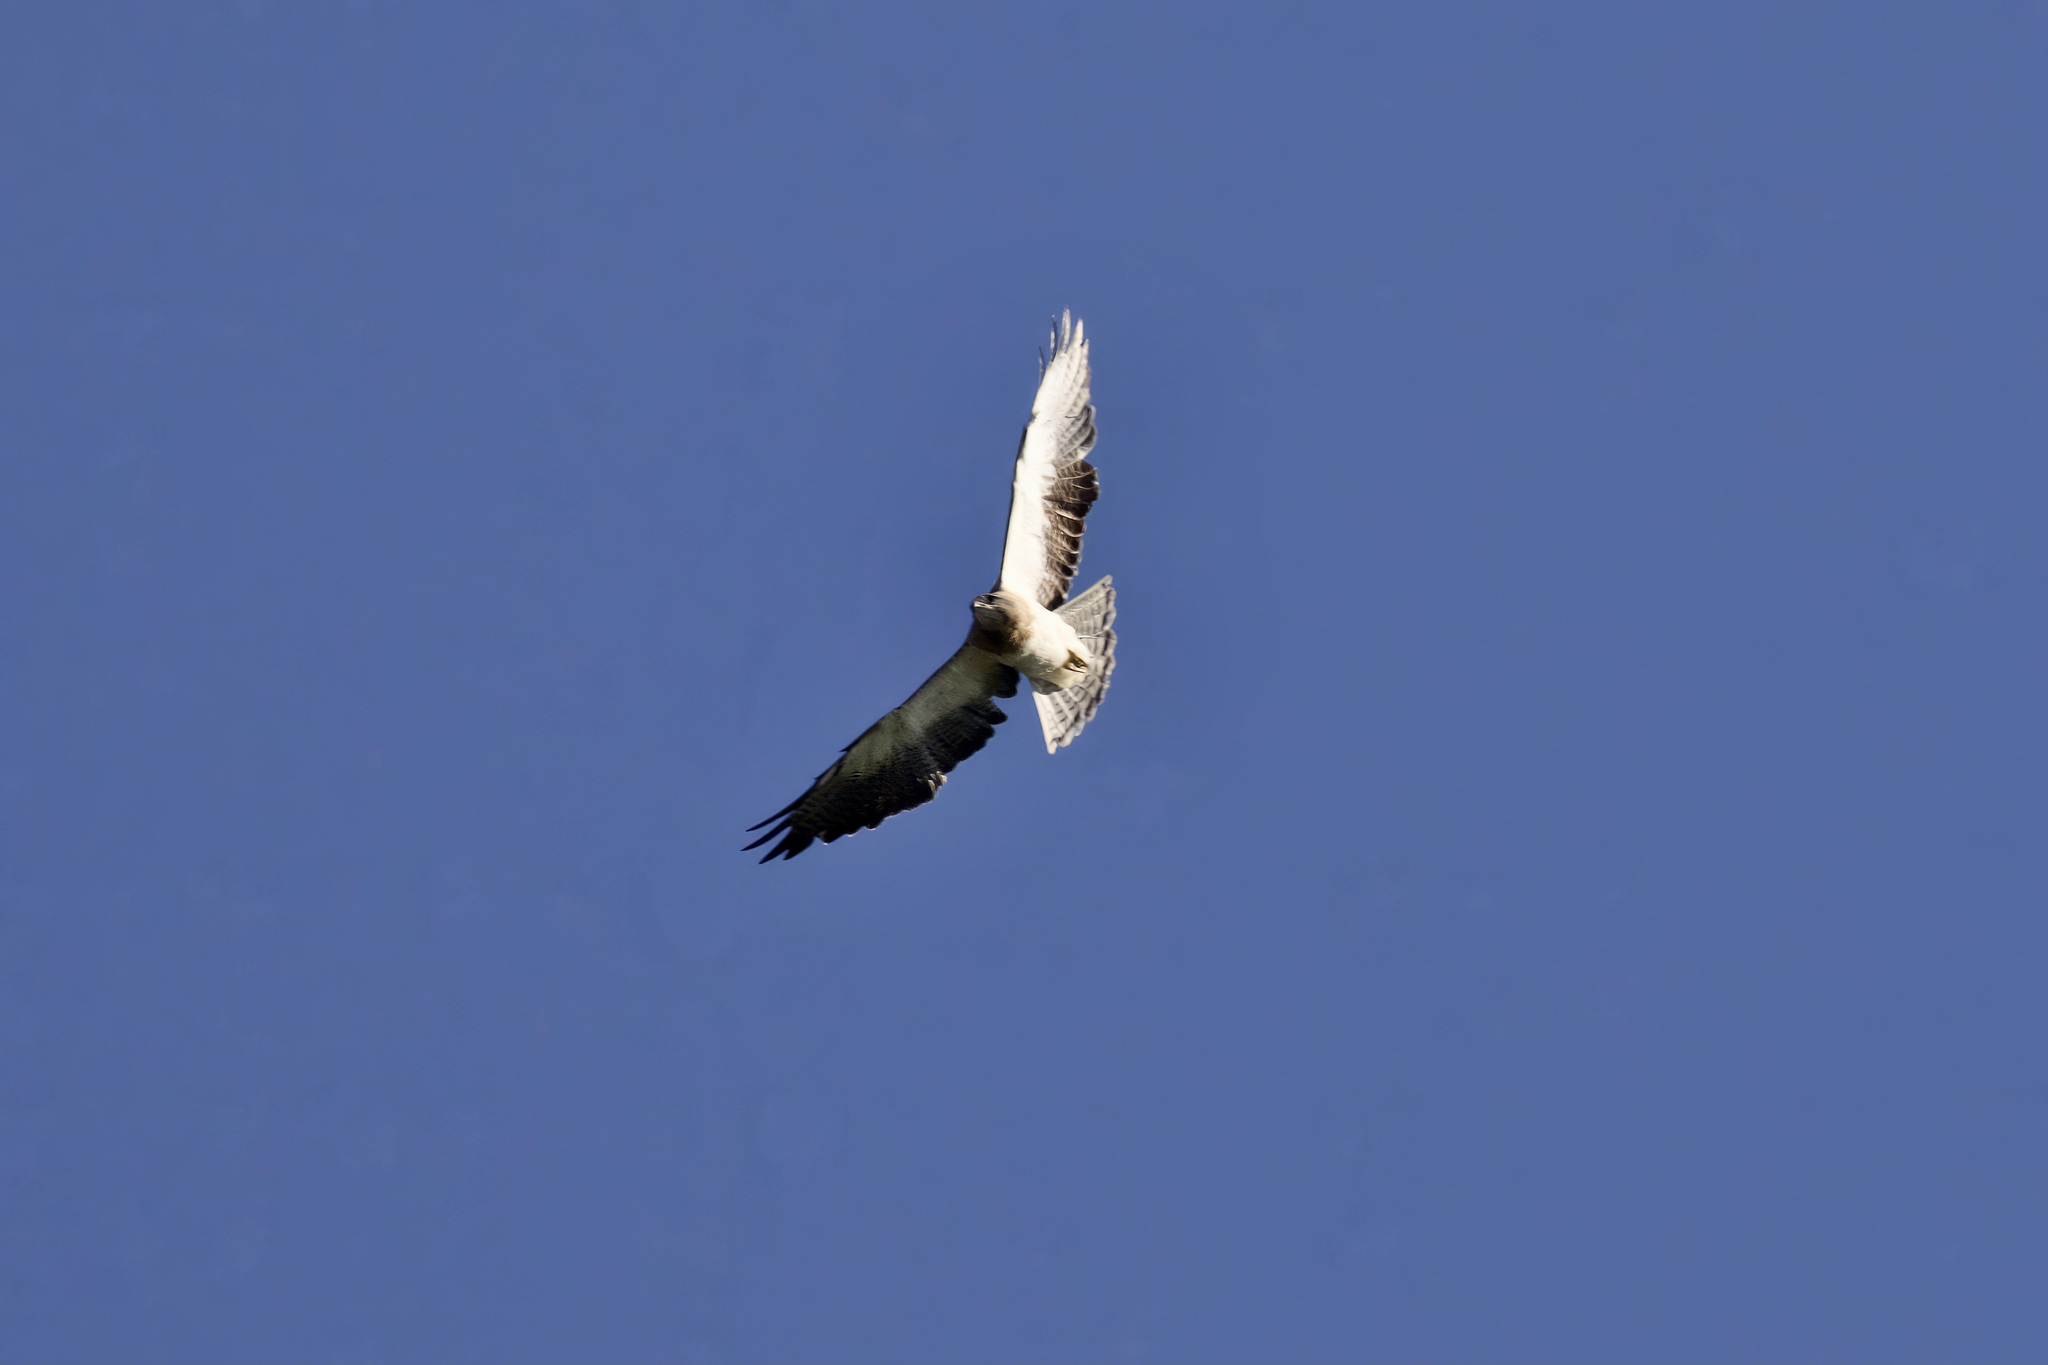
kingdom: Animalia
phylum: Chordata
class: Aves
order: Accipitriformes
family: Accipitridae
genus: Buteo
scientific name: Buteo swainsoni
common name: Swainson's hawk
